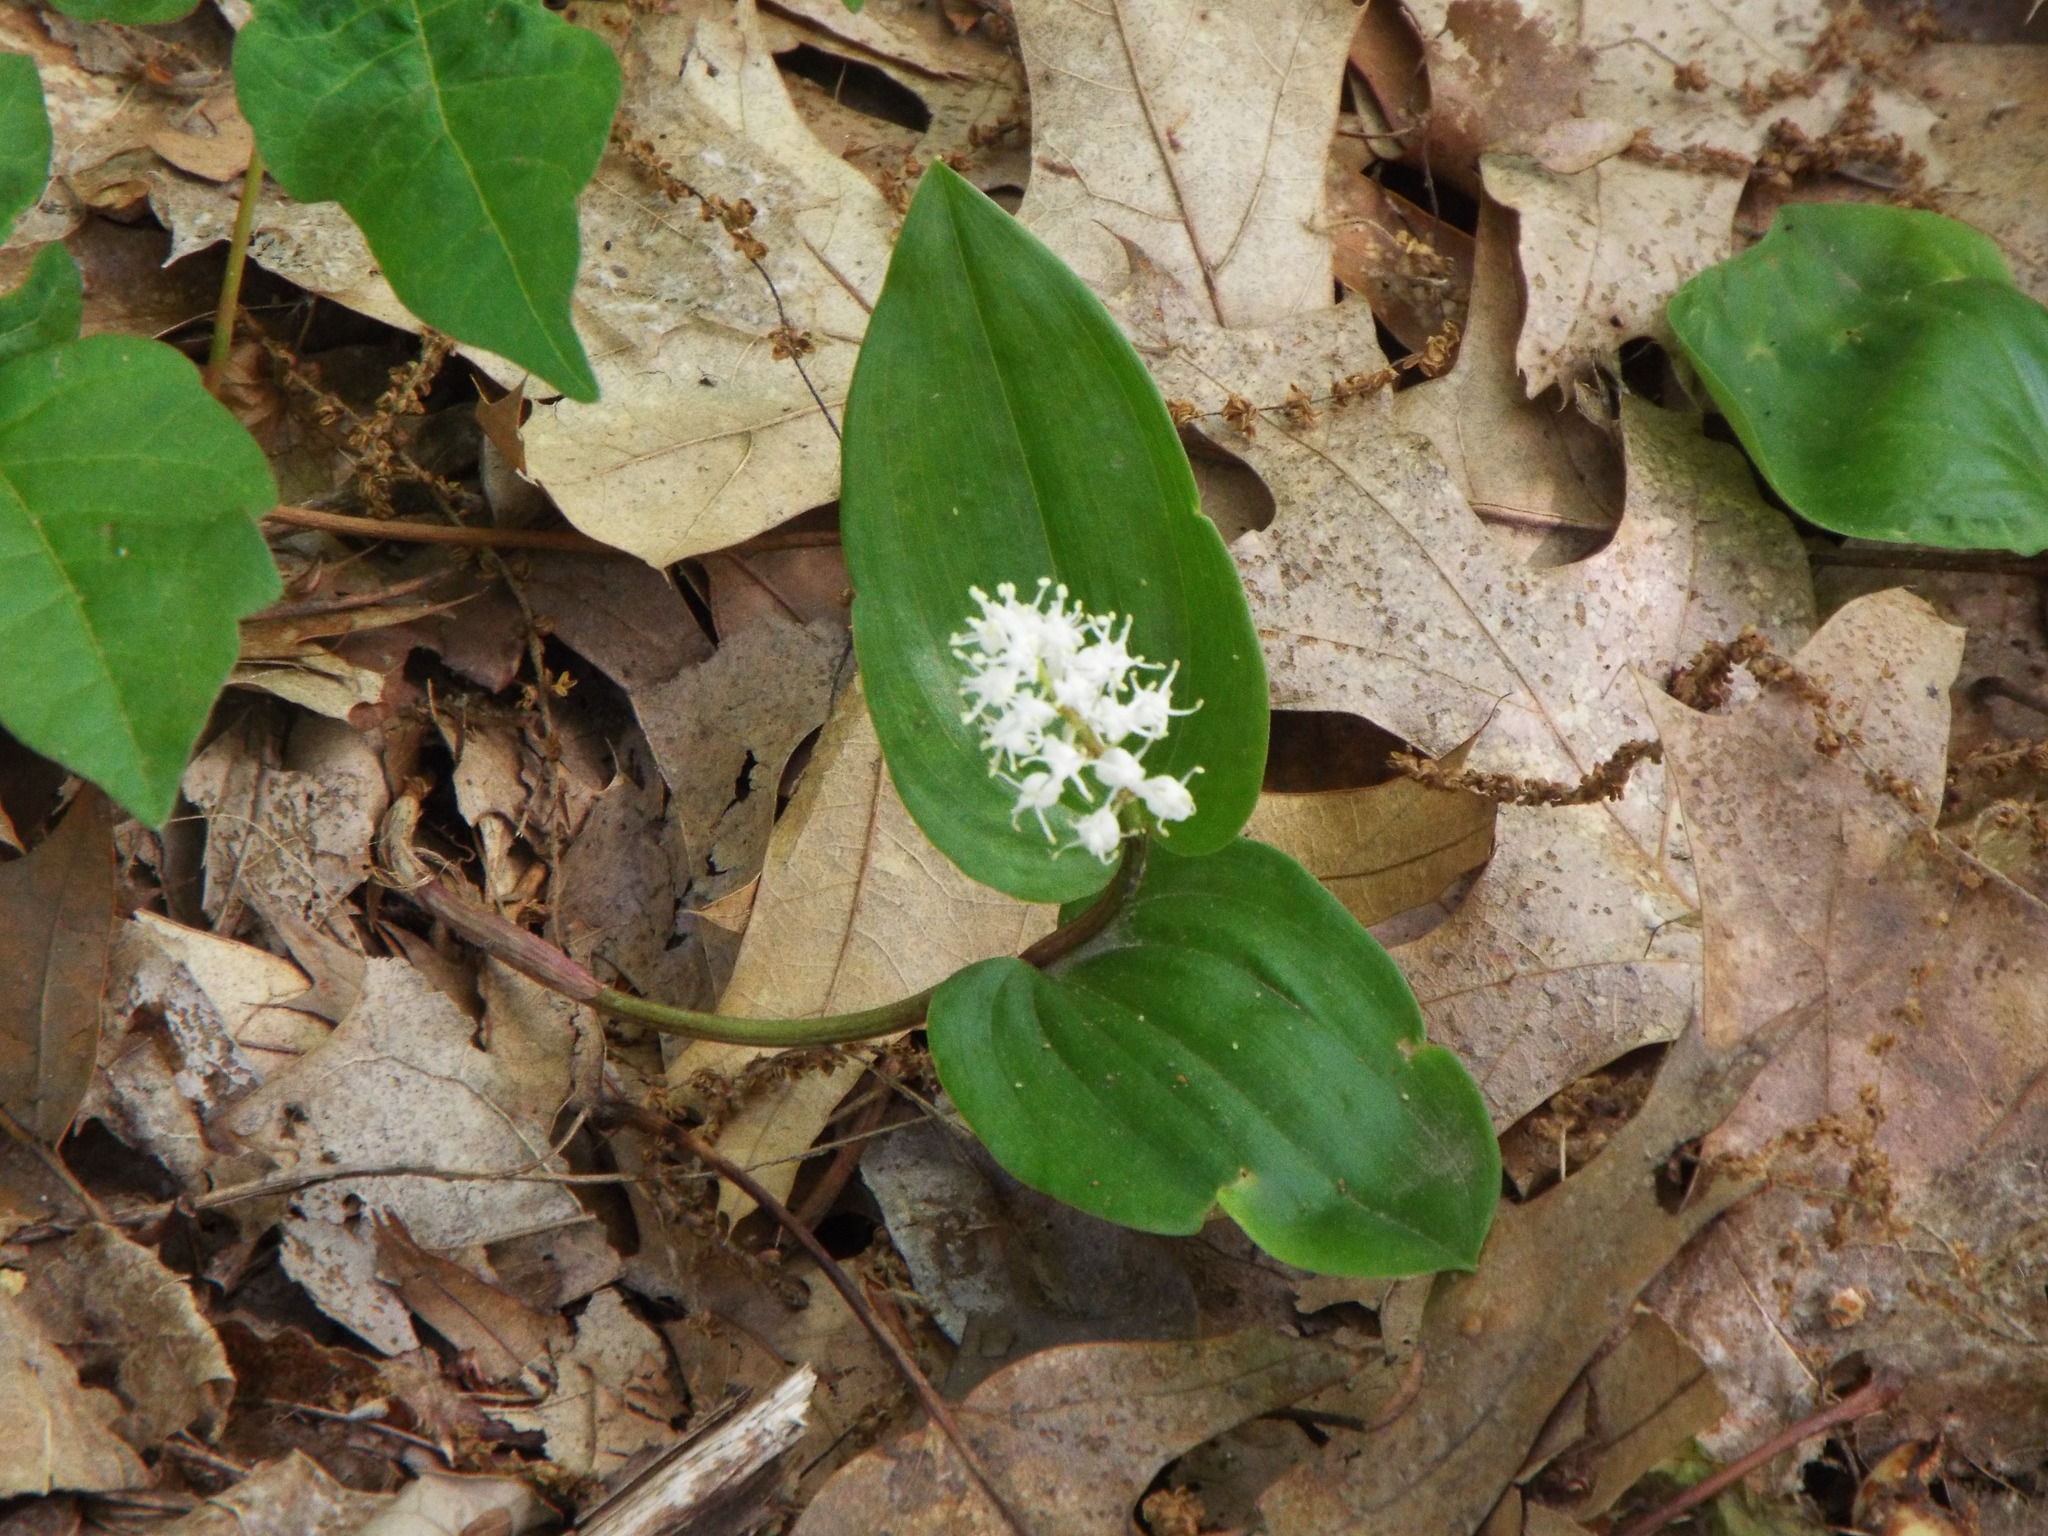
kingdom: Plantae
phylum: Tracheophyta
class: Liliopsida
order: Asparagales
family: Asparagaceae
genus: Maianthemum
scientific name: Maianthemum canadense
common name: False lily-of-the-valley
